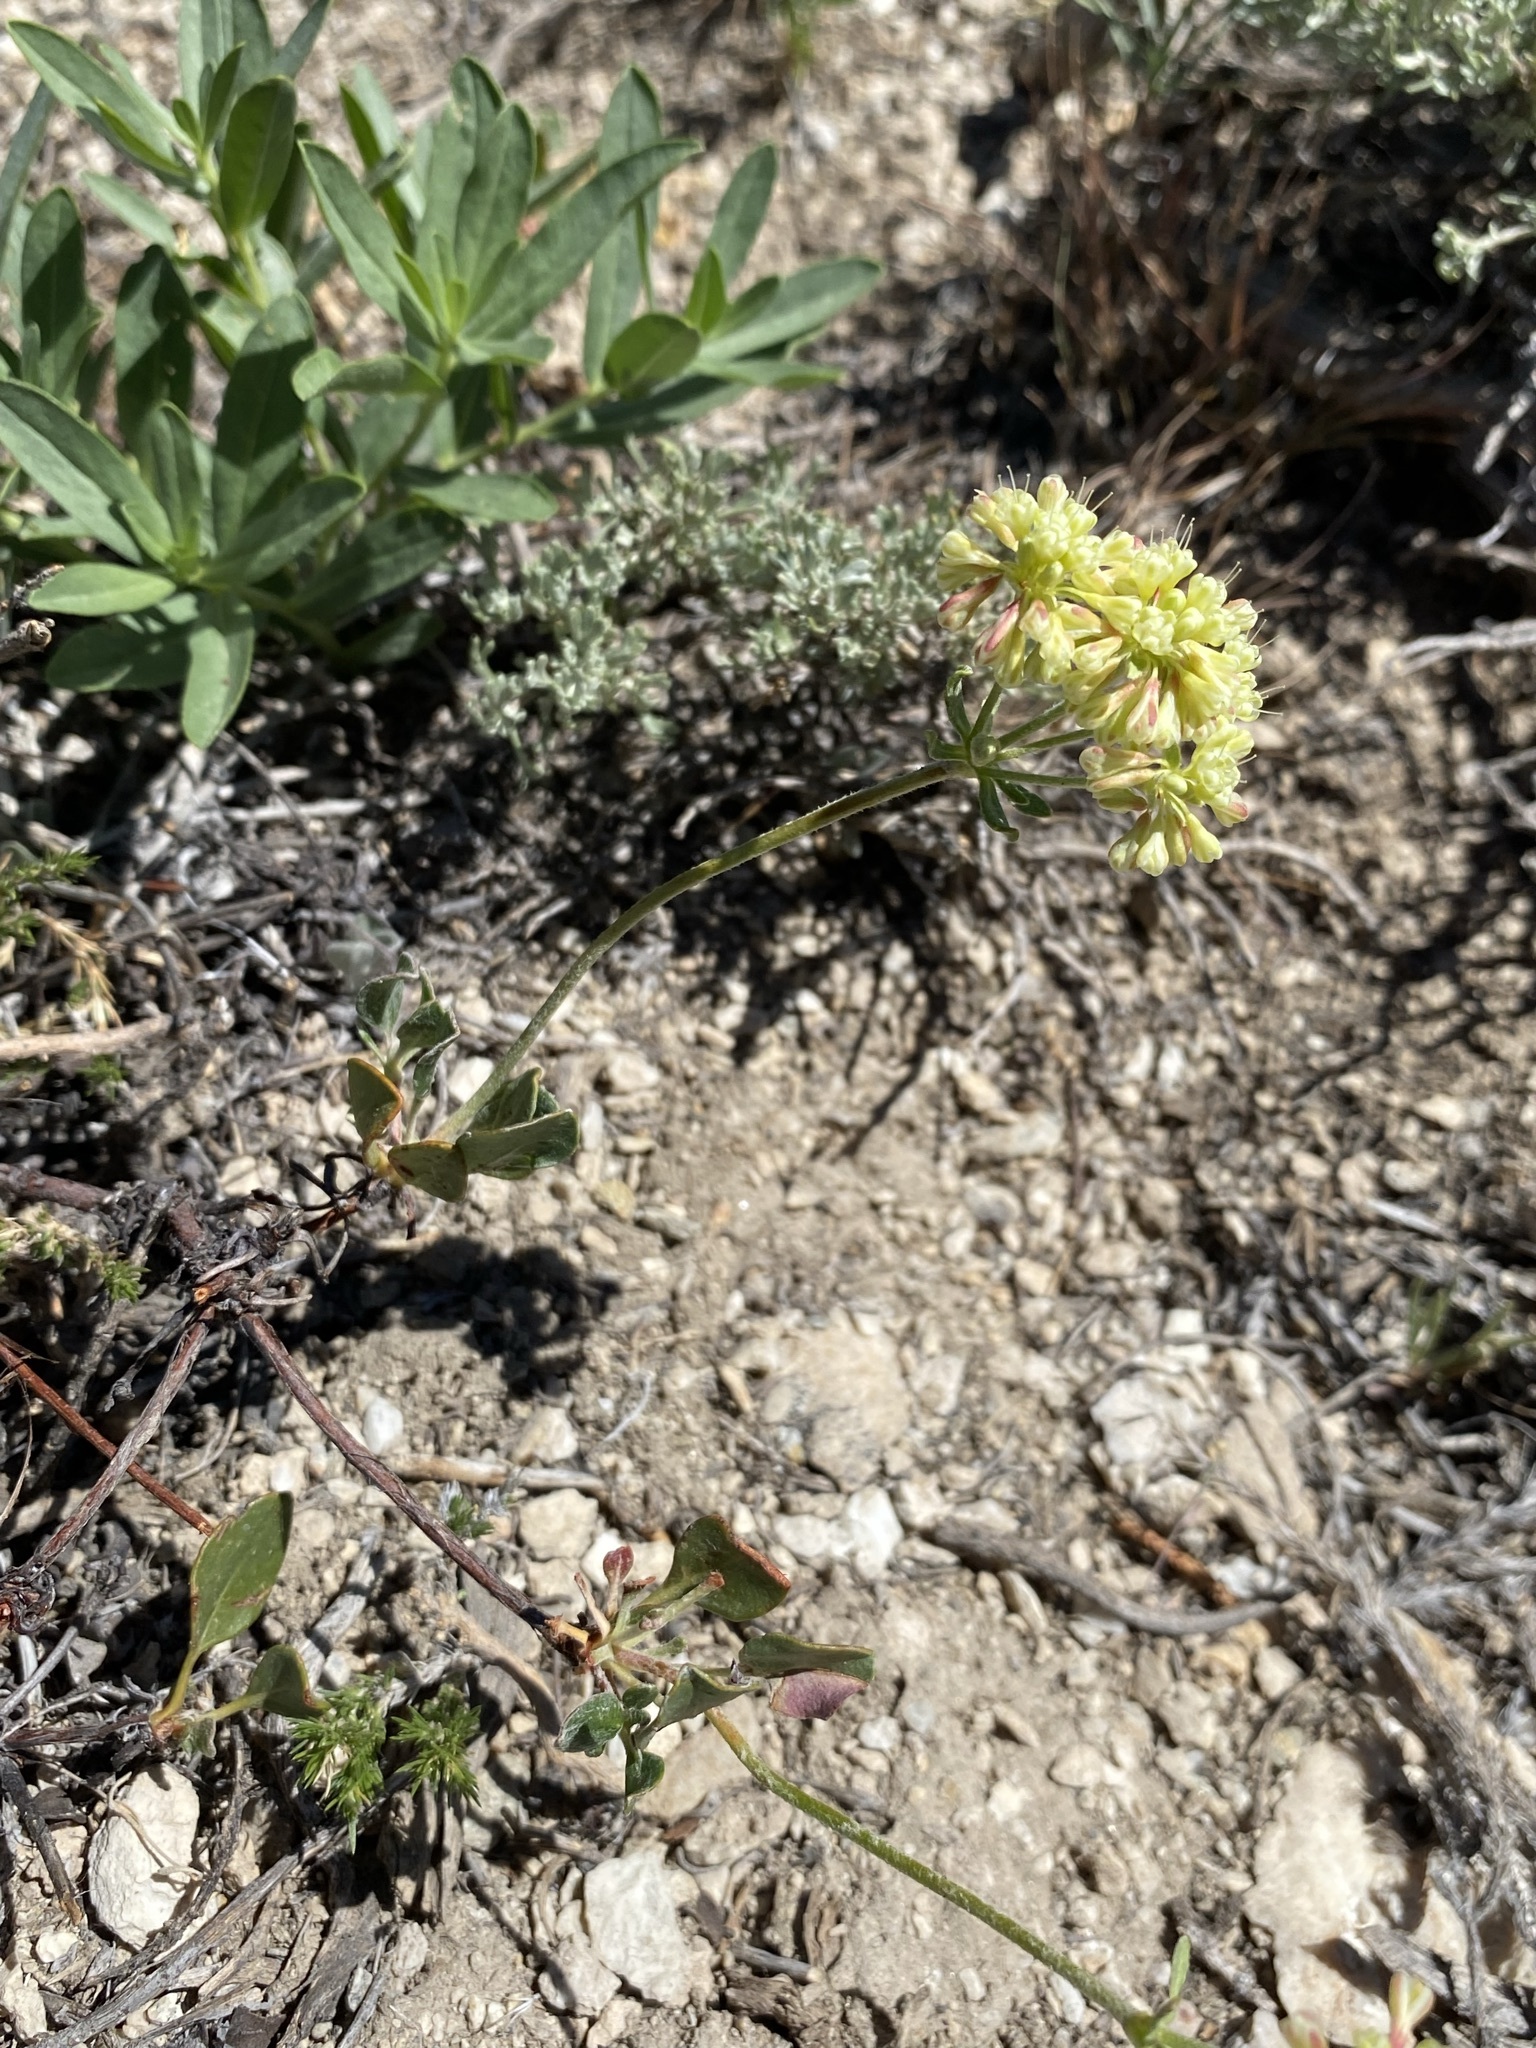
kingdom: Plantae
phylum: Tracheophyta
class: Magnoliopsida
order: Caryophyllales
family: Polygonaceae
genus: Eriogonum
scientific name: Eriogonum umbellatum
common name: Sulfur-buckwheat
